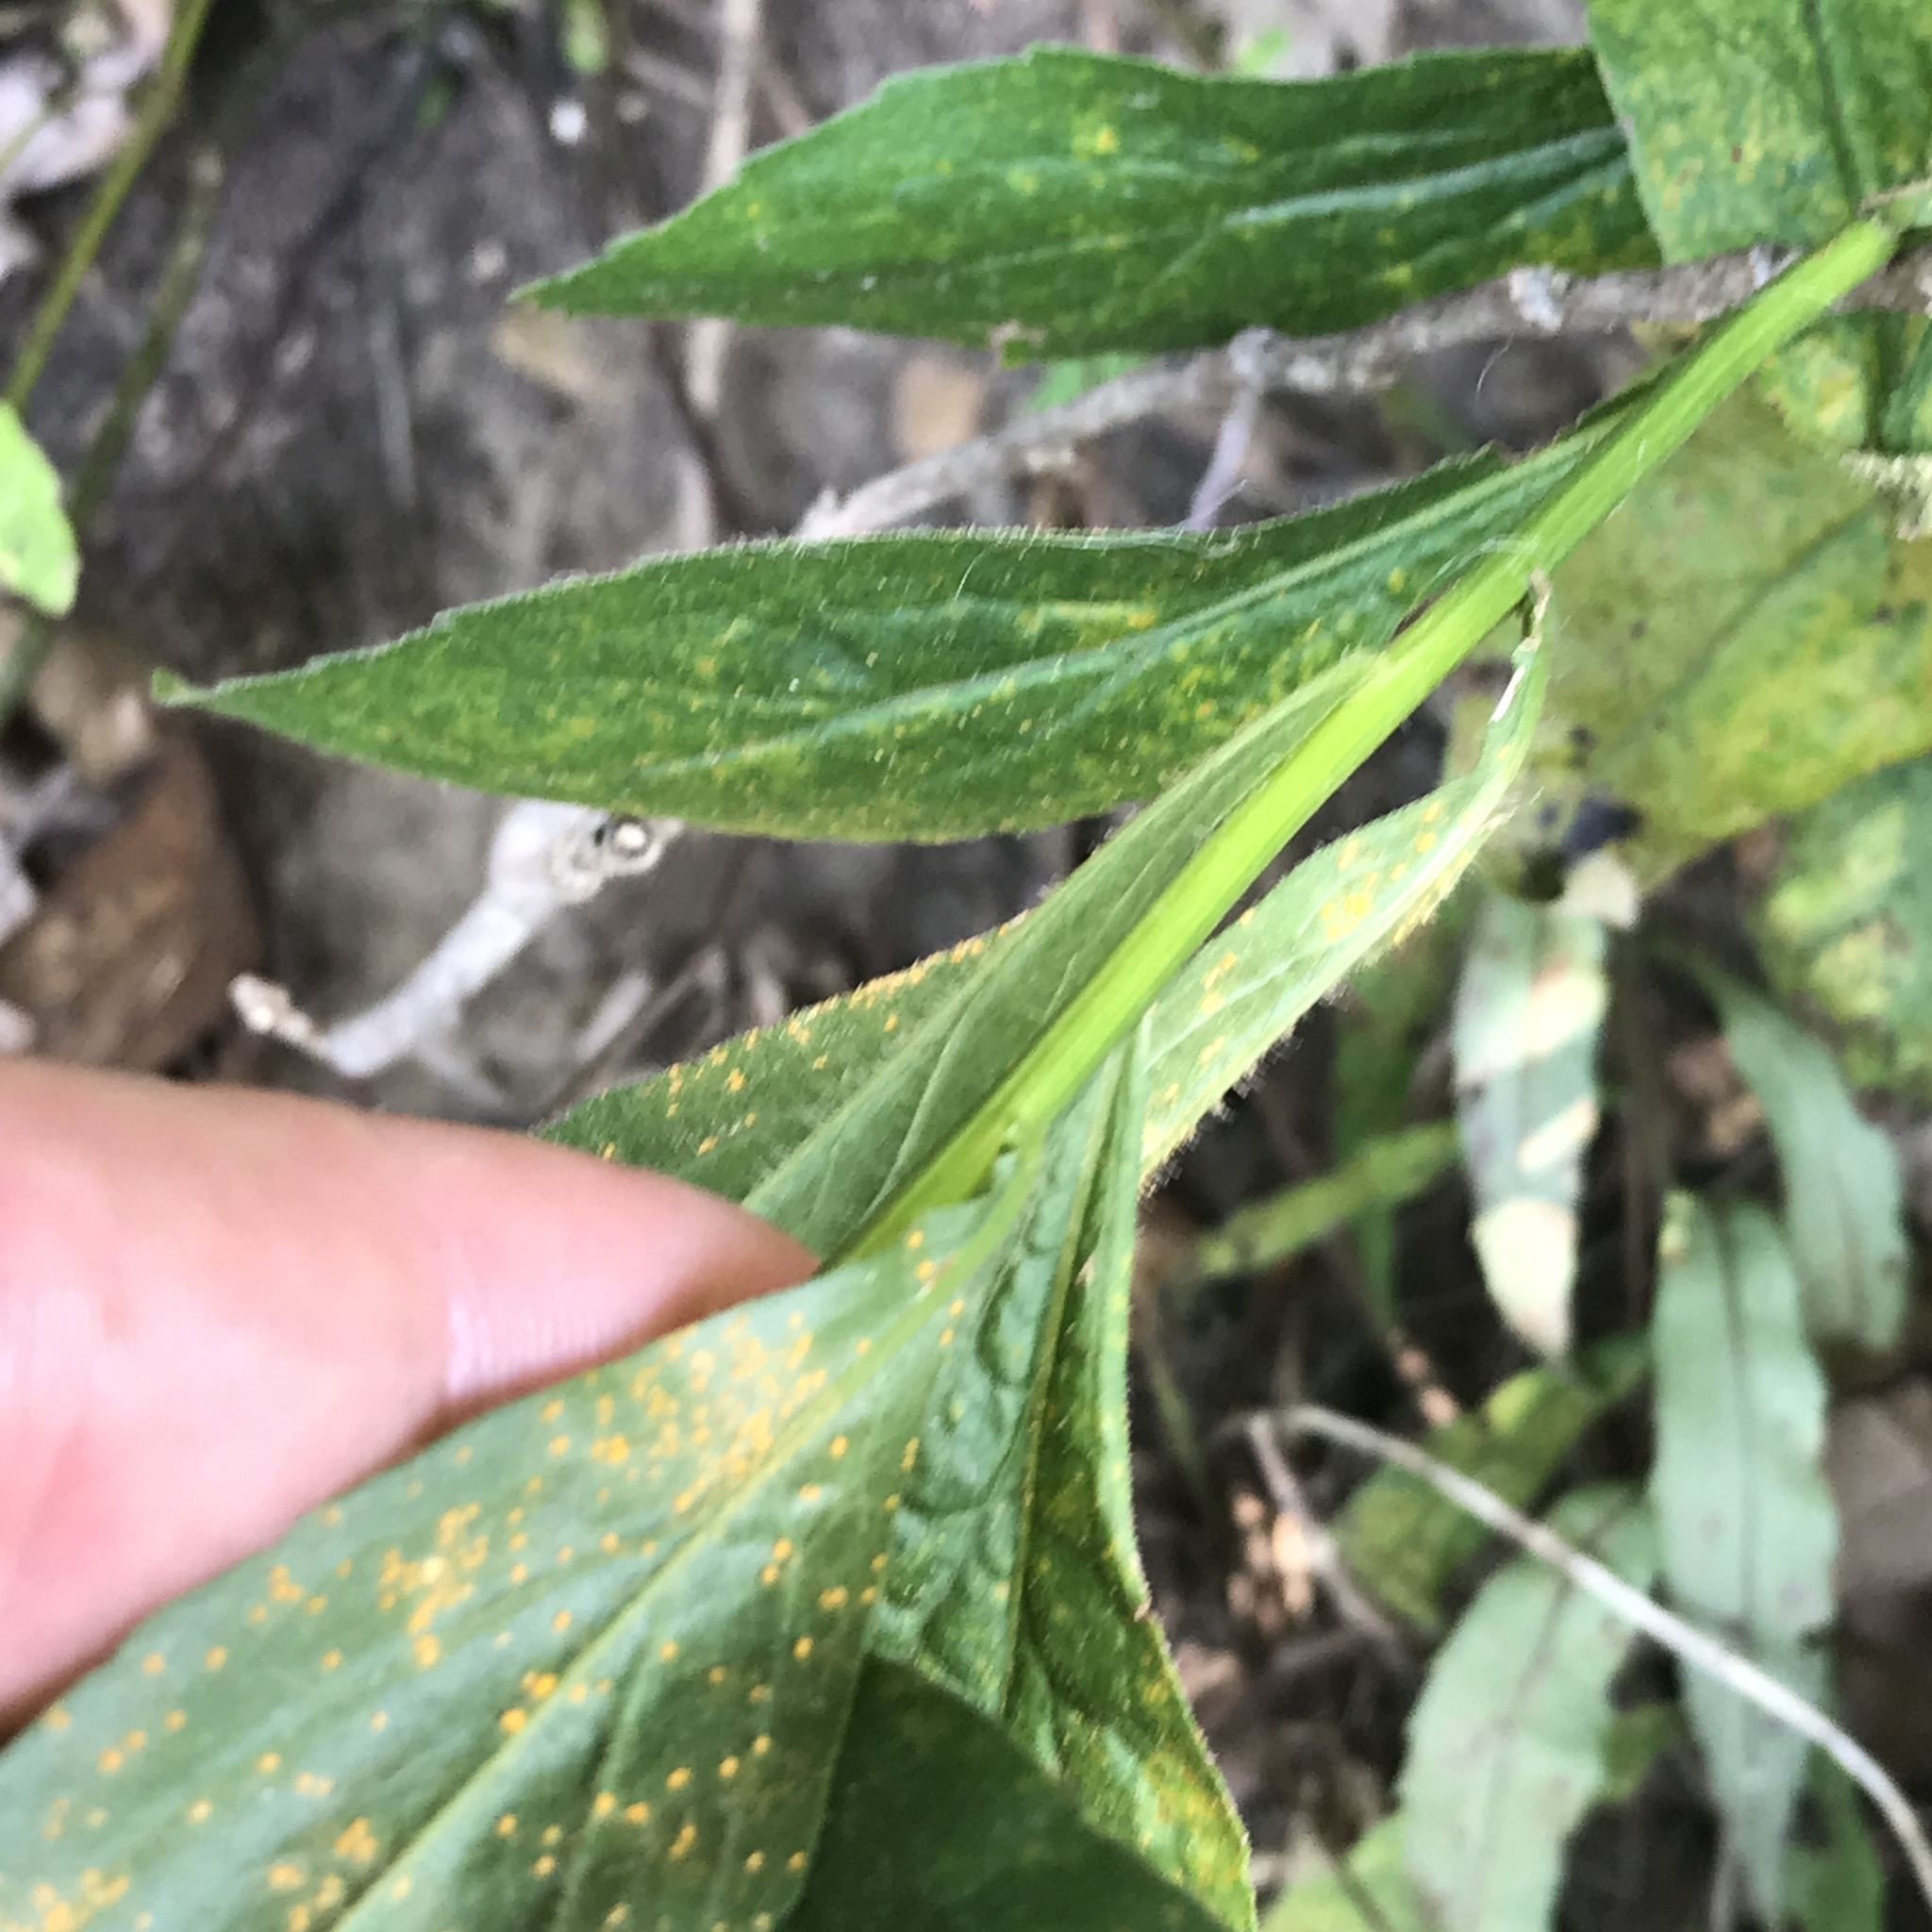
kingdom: Plantae
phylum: Tracheophyta
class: Magnoliopsida
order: Asterales
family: Asteraceae
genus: Solidago
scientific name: Solidago ulmifolia
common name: Elm-leaf goldenrod
